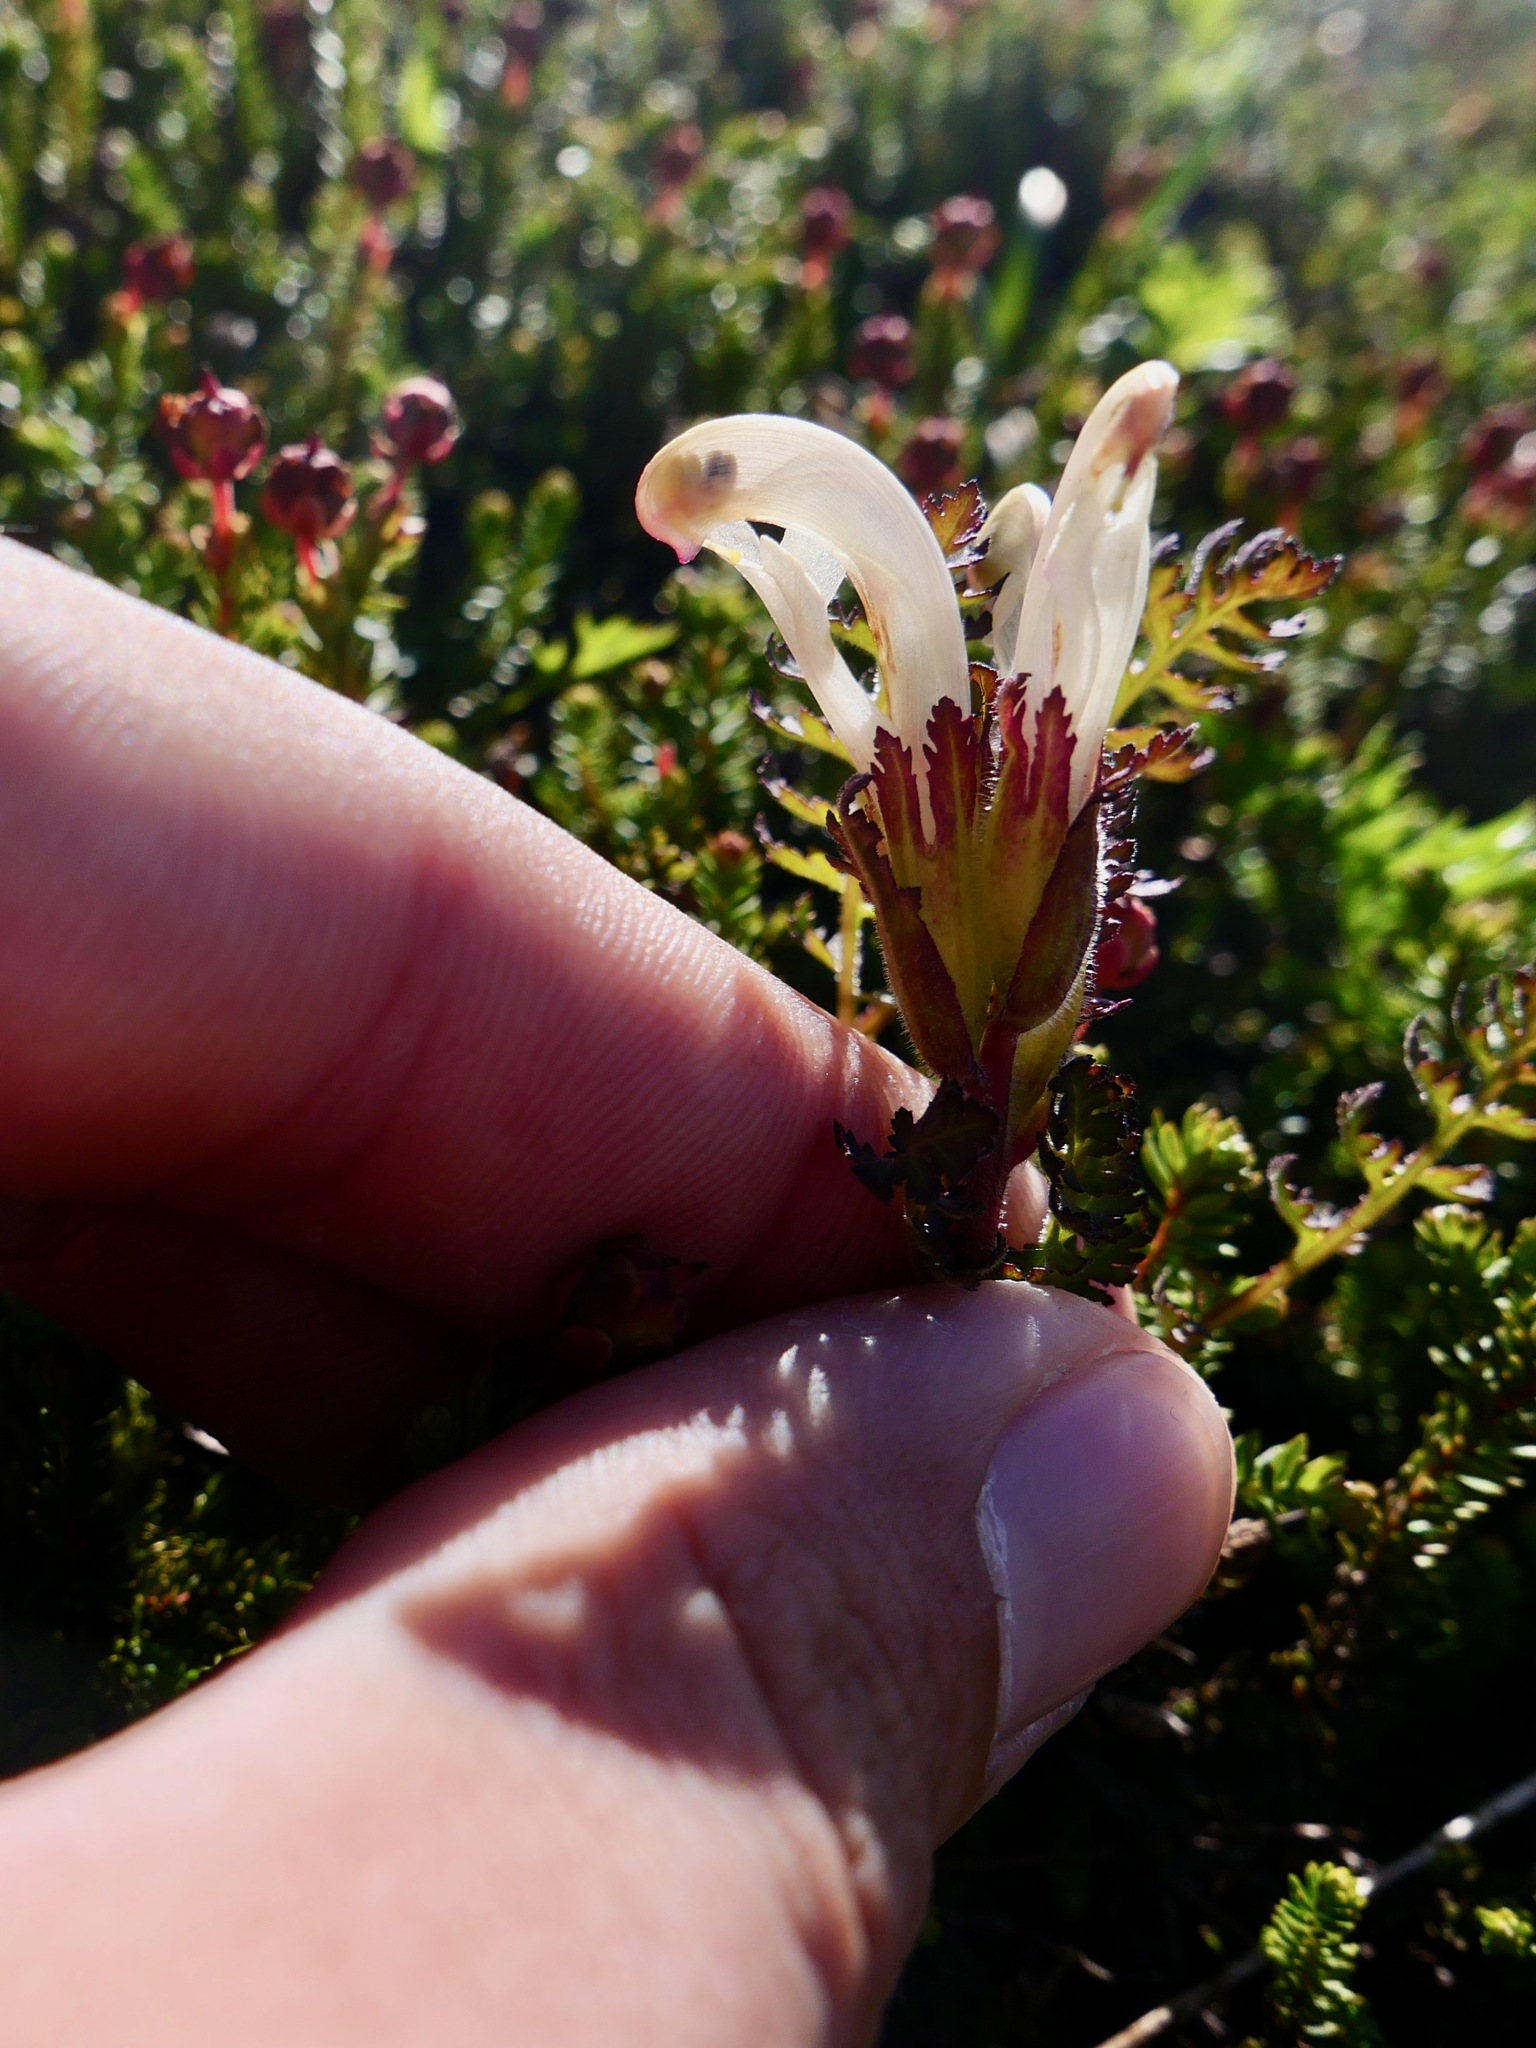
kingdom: Plantae
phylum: Tracheophyta
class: Magnoliopsida
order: Lamiales
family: Orobanchaceae
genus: Pedicularis
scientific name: Pedicularis capitata
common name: Capitate lousewort
